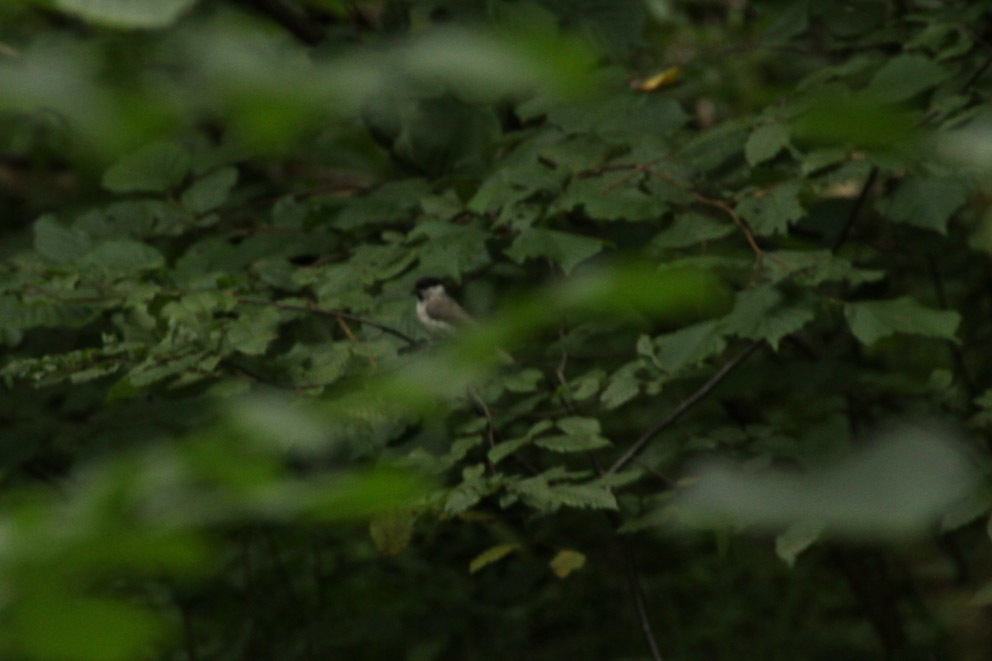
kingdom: Animalia
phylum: Chordata
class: Aves
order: Passeriformes
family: Paridae
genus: Poecile
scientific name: Poecile palustris
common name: Marsh tit
